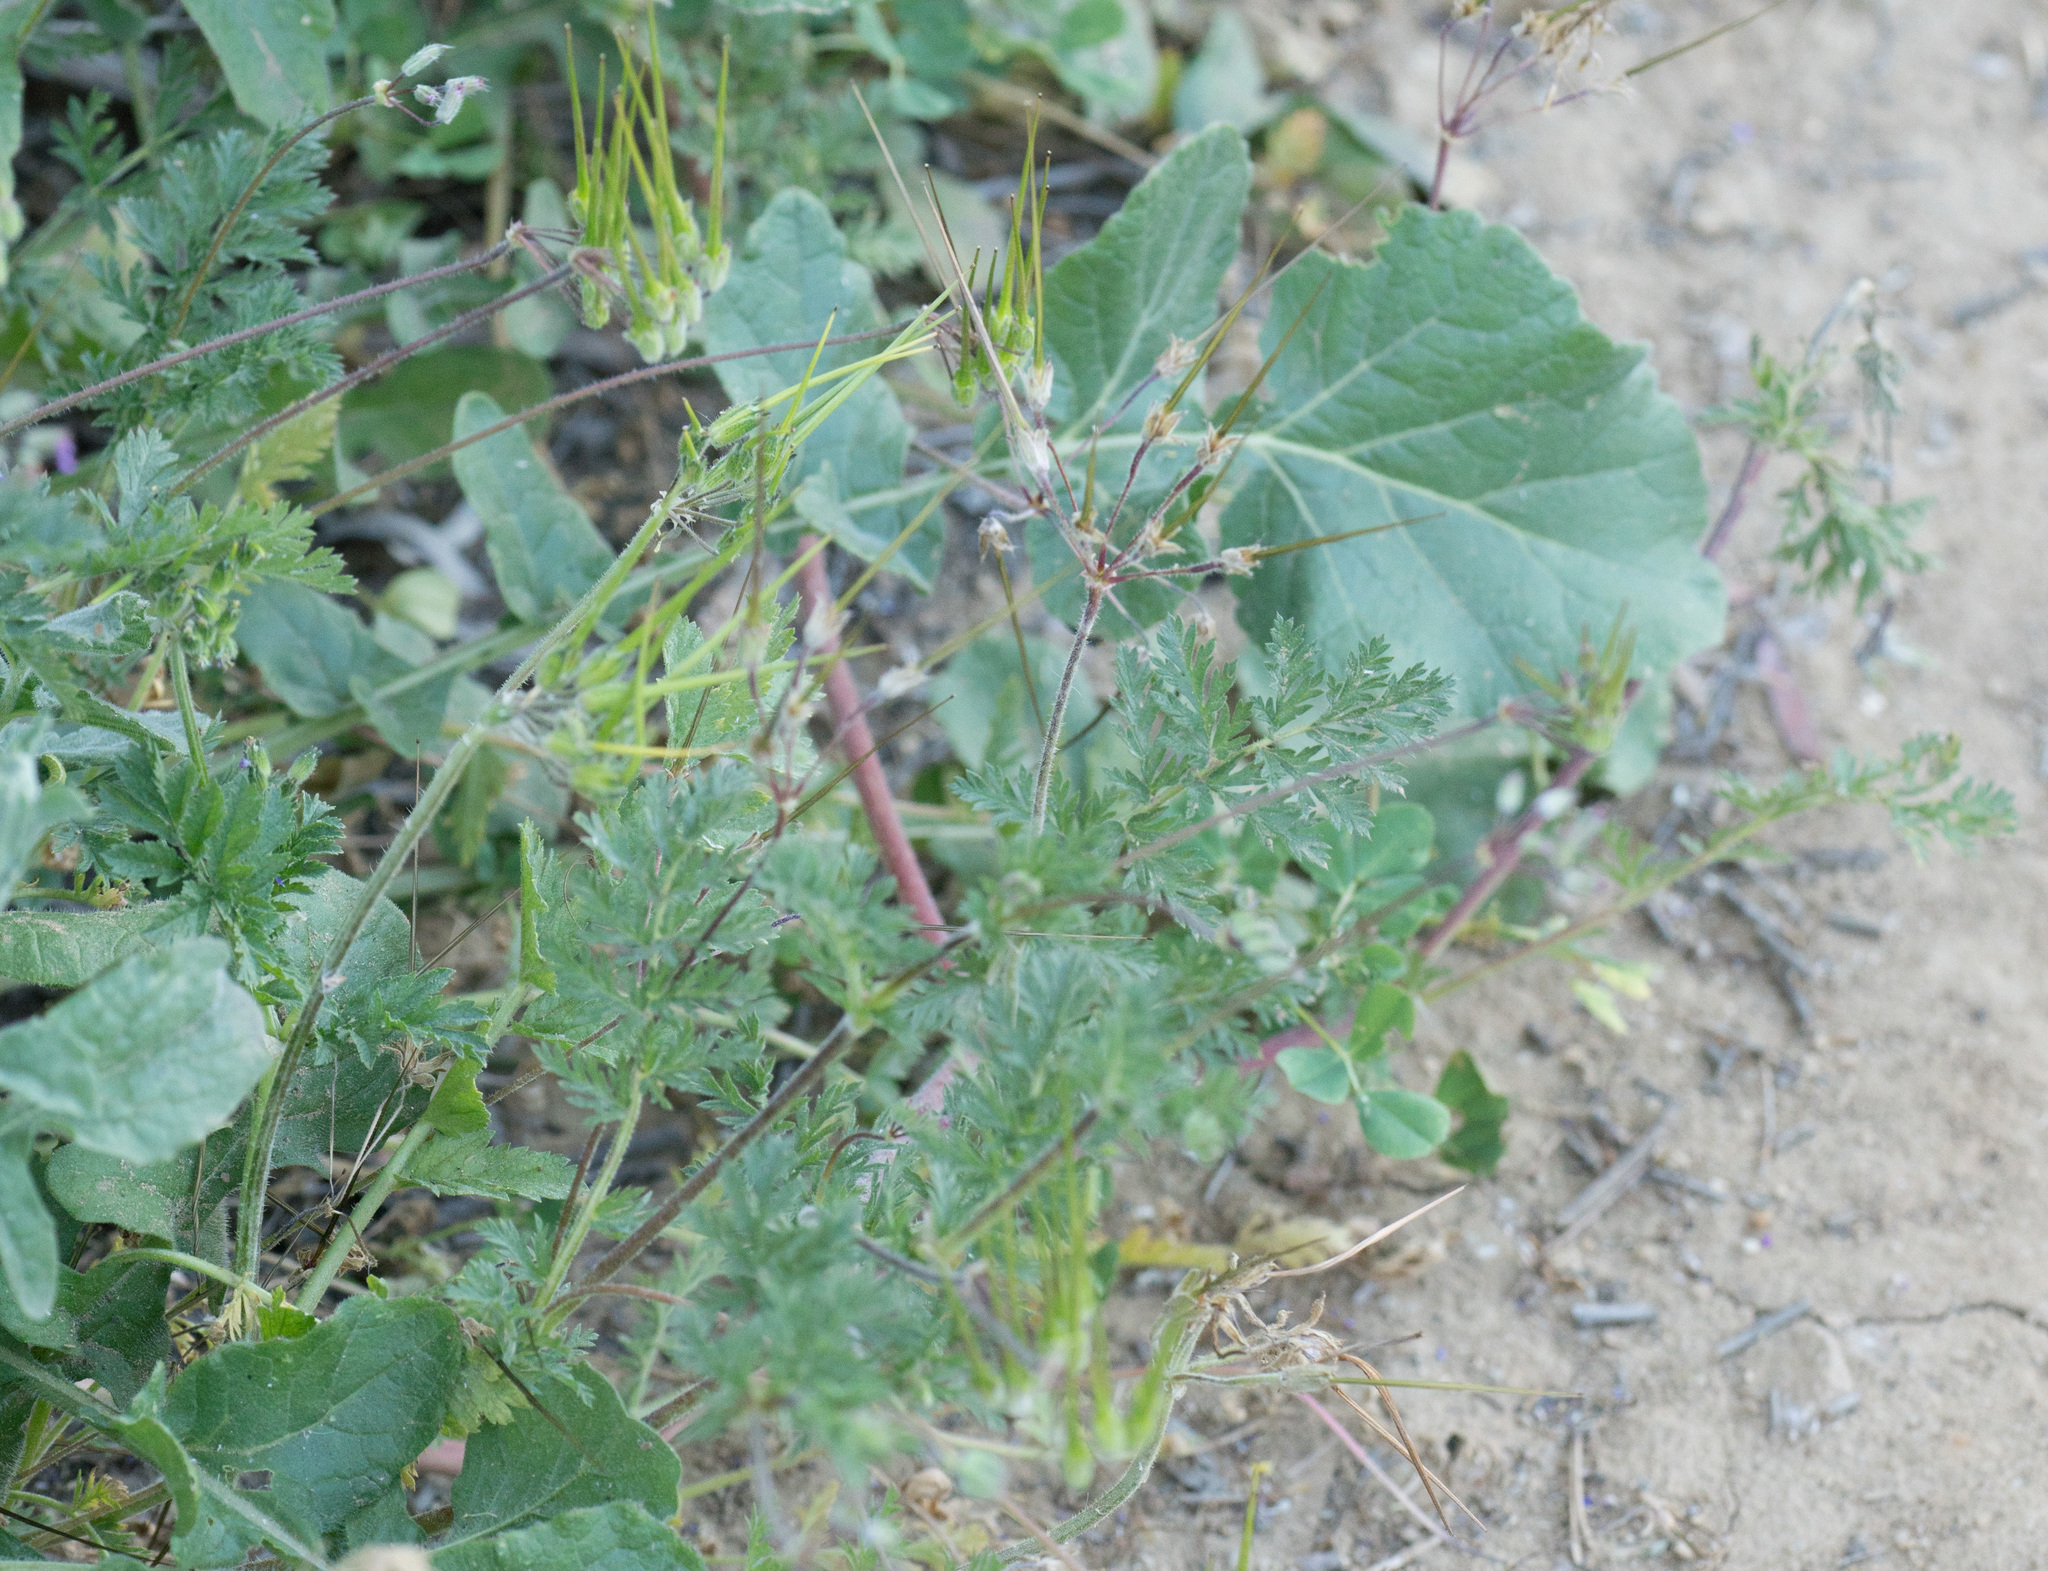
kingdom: Plantae
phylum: Tracheophyta
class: Magnoliopsida
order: Geraniales
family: Geraniaceae
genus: Erodium
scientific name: Erodium cicutarium
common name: Common stork's-bill
